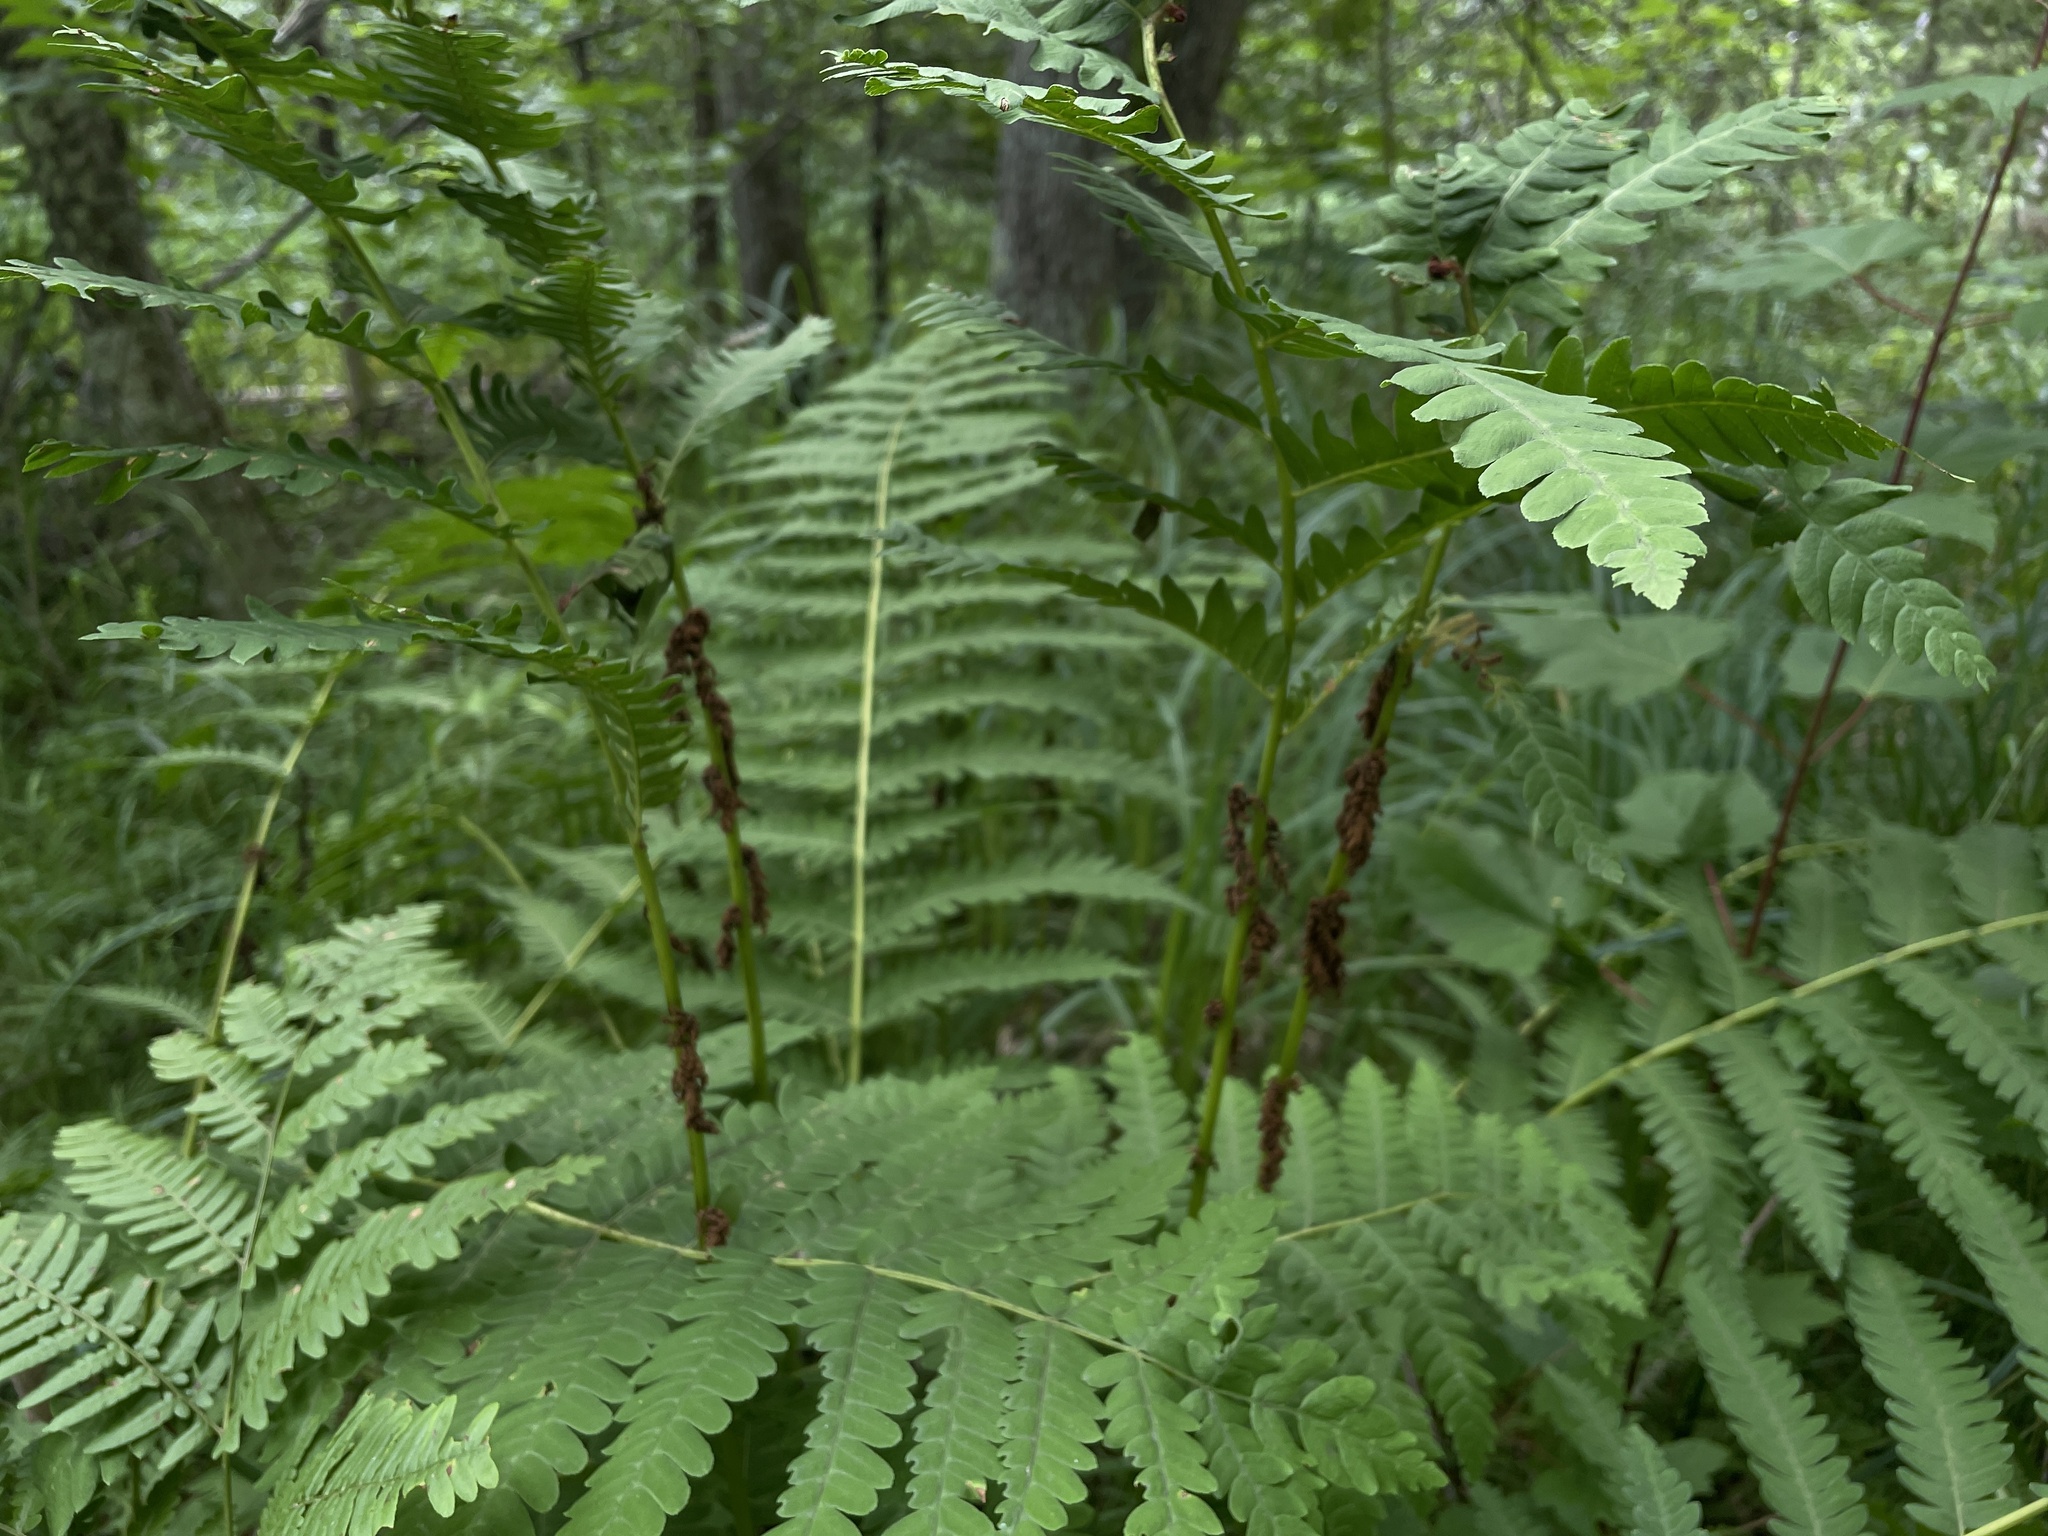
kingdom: Plantae
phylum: Tracheophyta
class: Polypodiopsida
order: Osmundales
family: Osmundaceae
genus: Claytosmunda
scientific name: Claytosmunda claytoniana
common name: Clayton's fern
